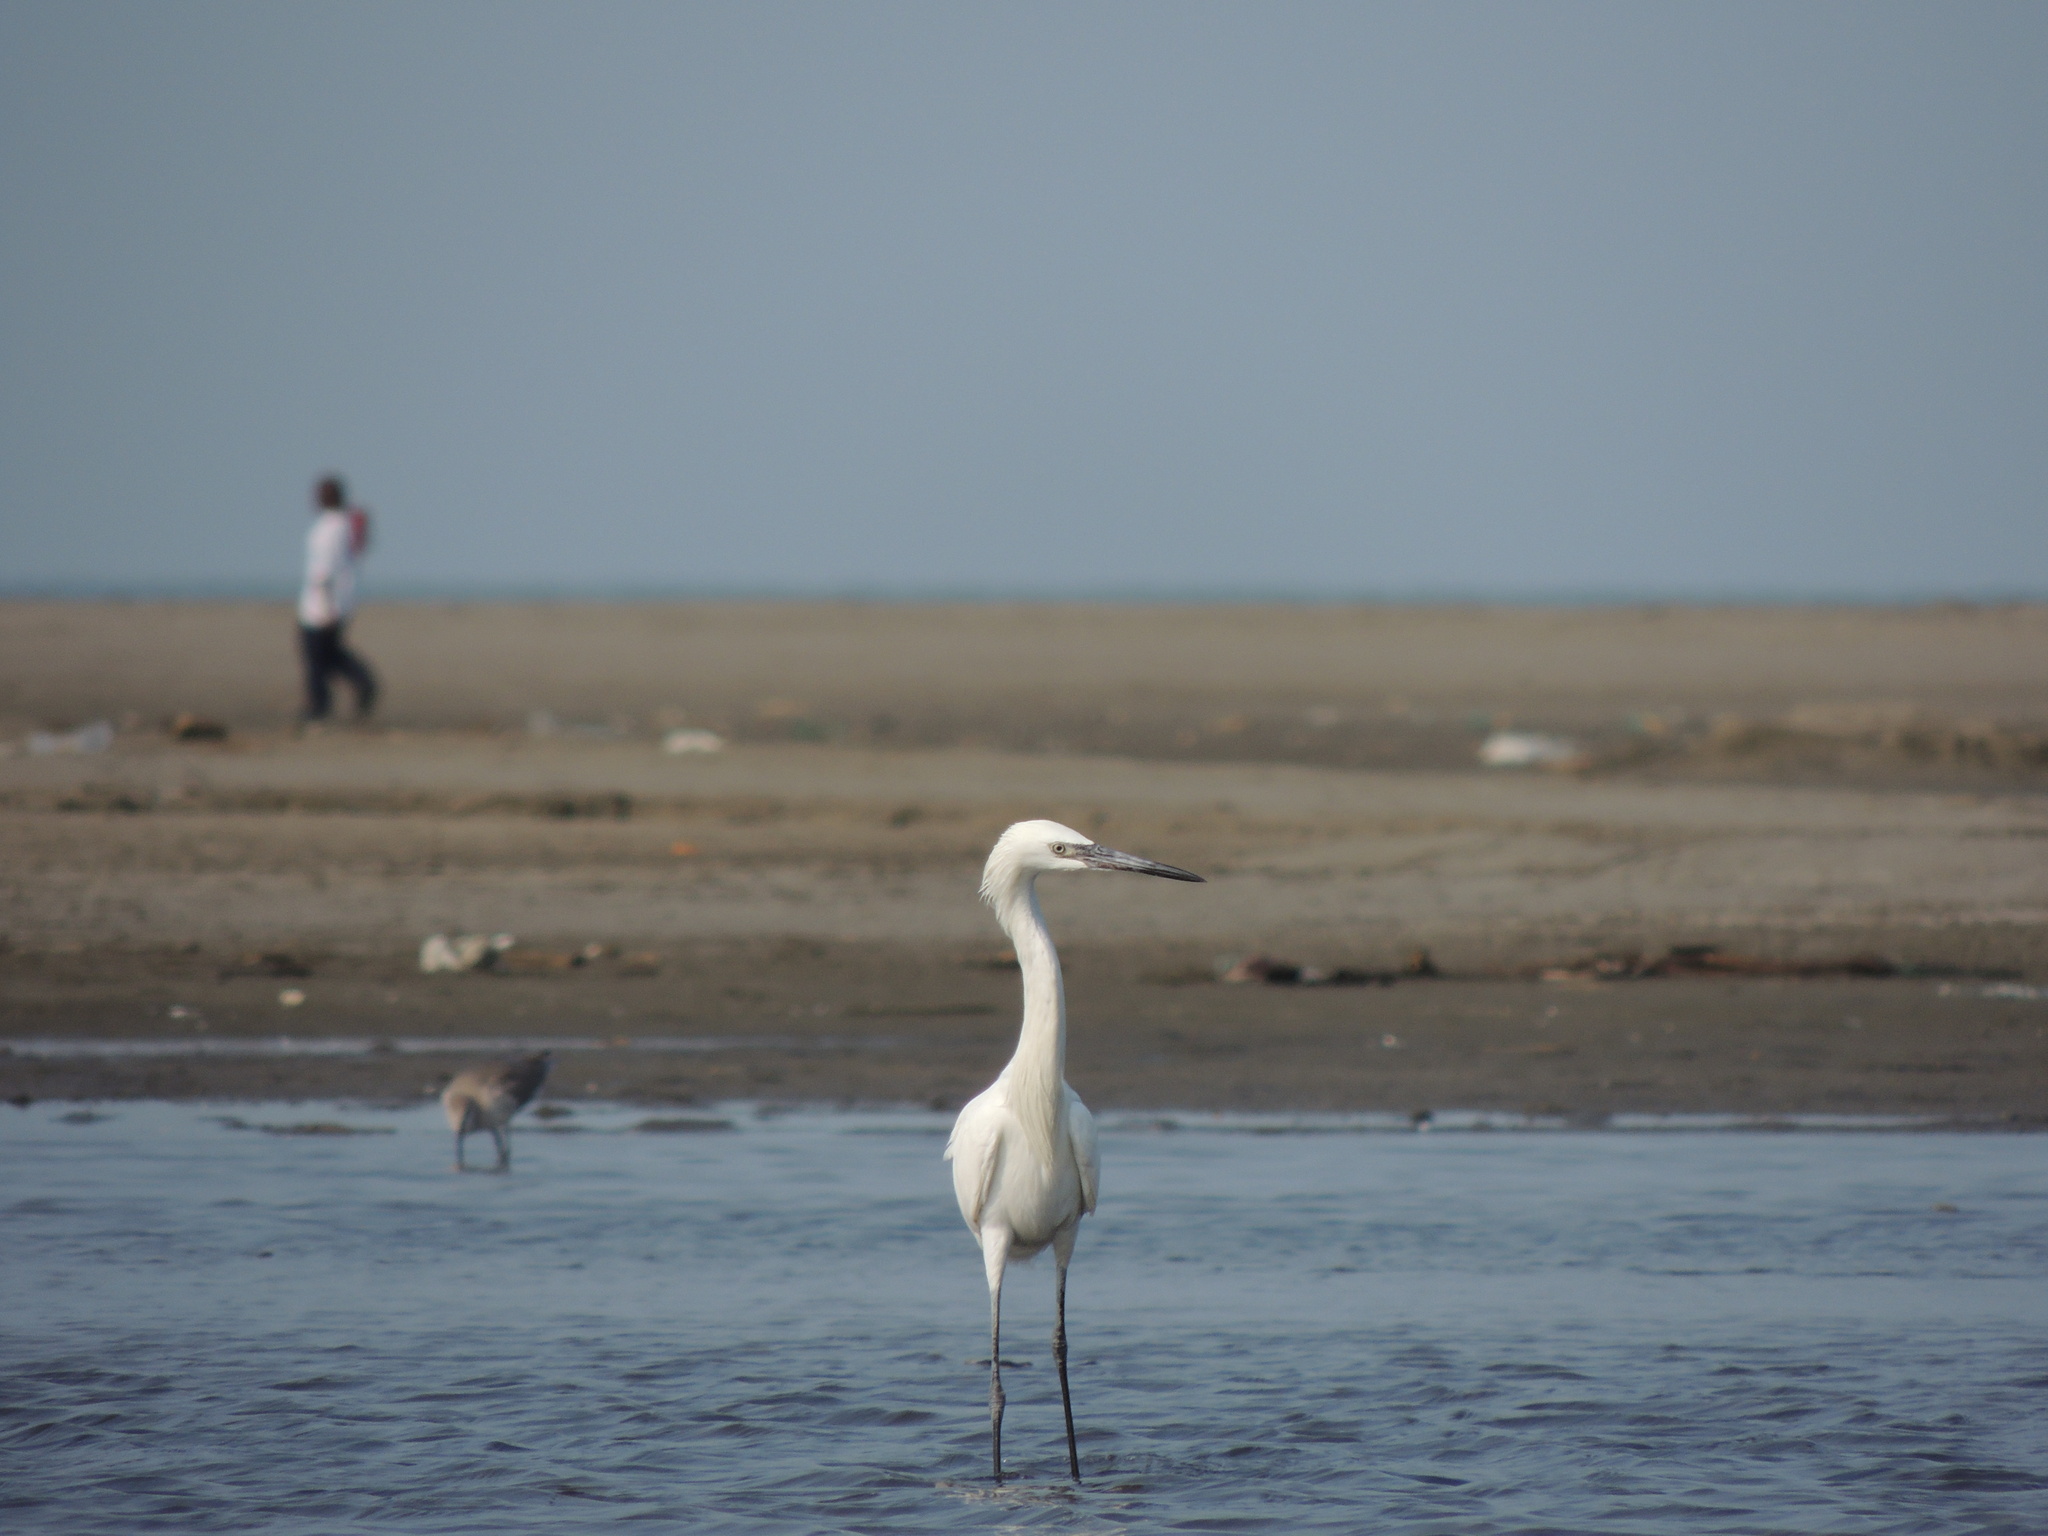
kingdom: Animalia
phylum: Chordata
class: Aves
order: Pelecaniformes
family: Ardeidae
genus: Egretta
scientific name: Egretta rufescens
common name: Reddish egret
